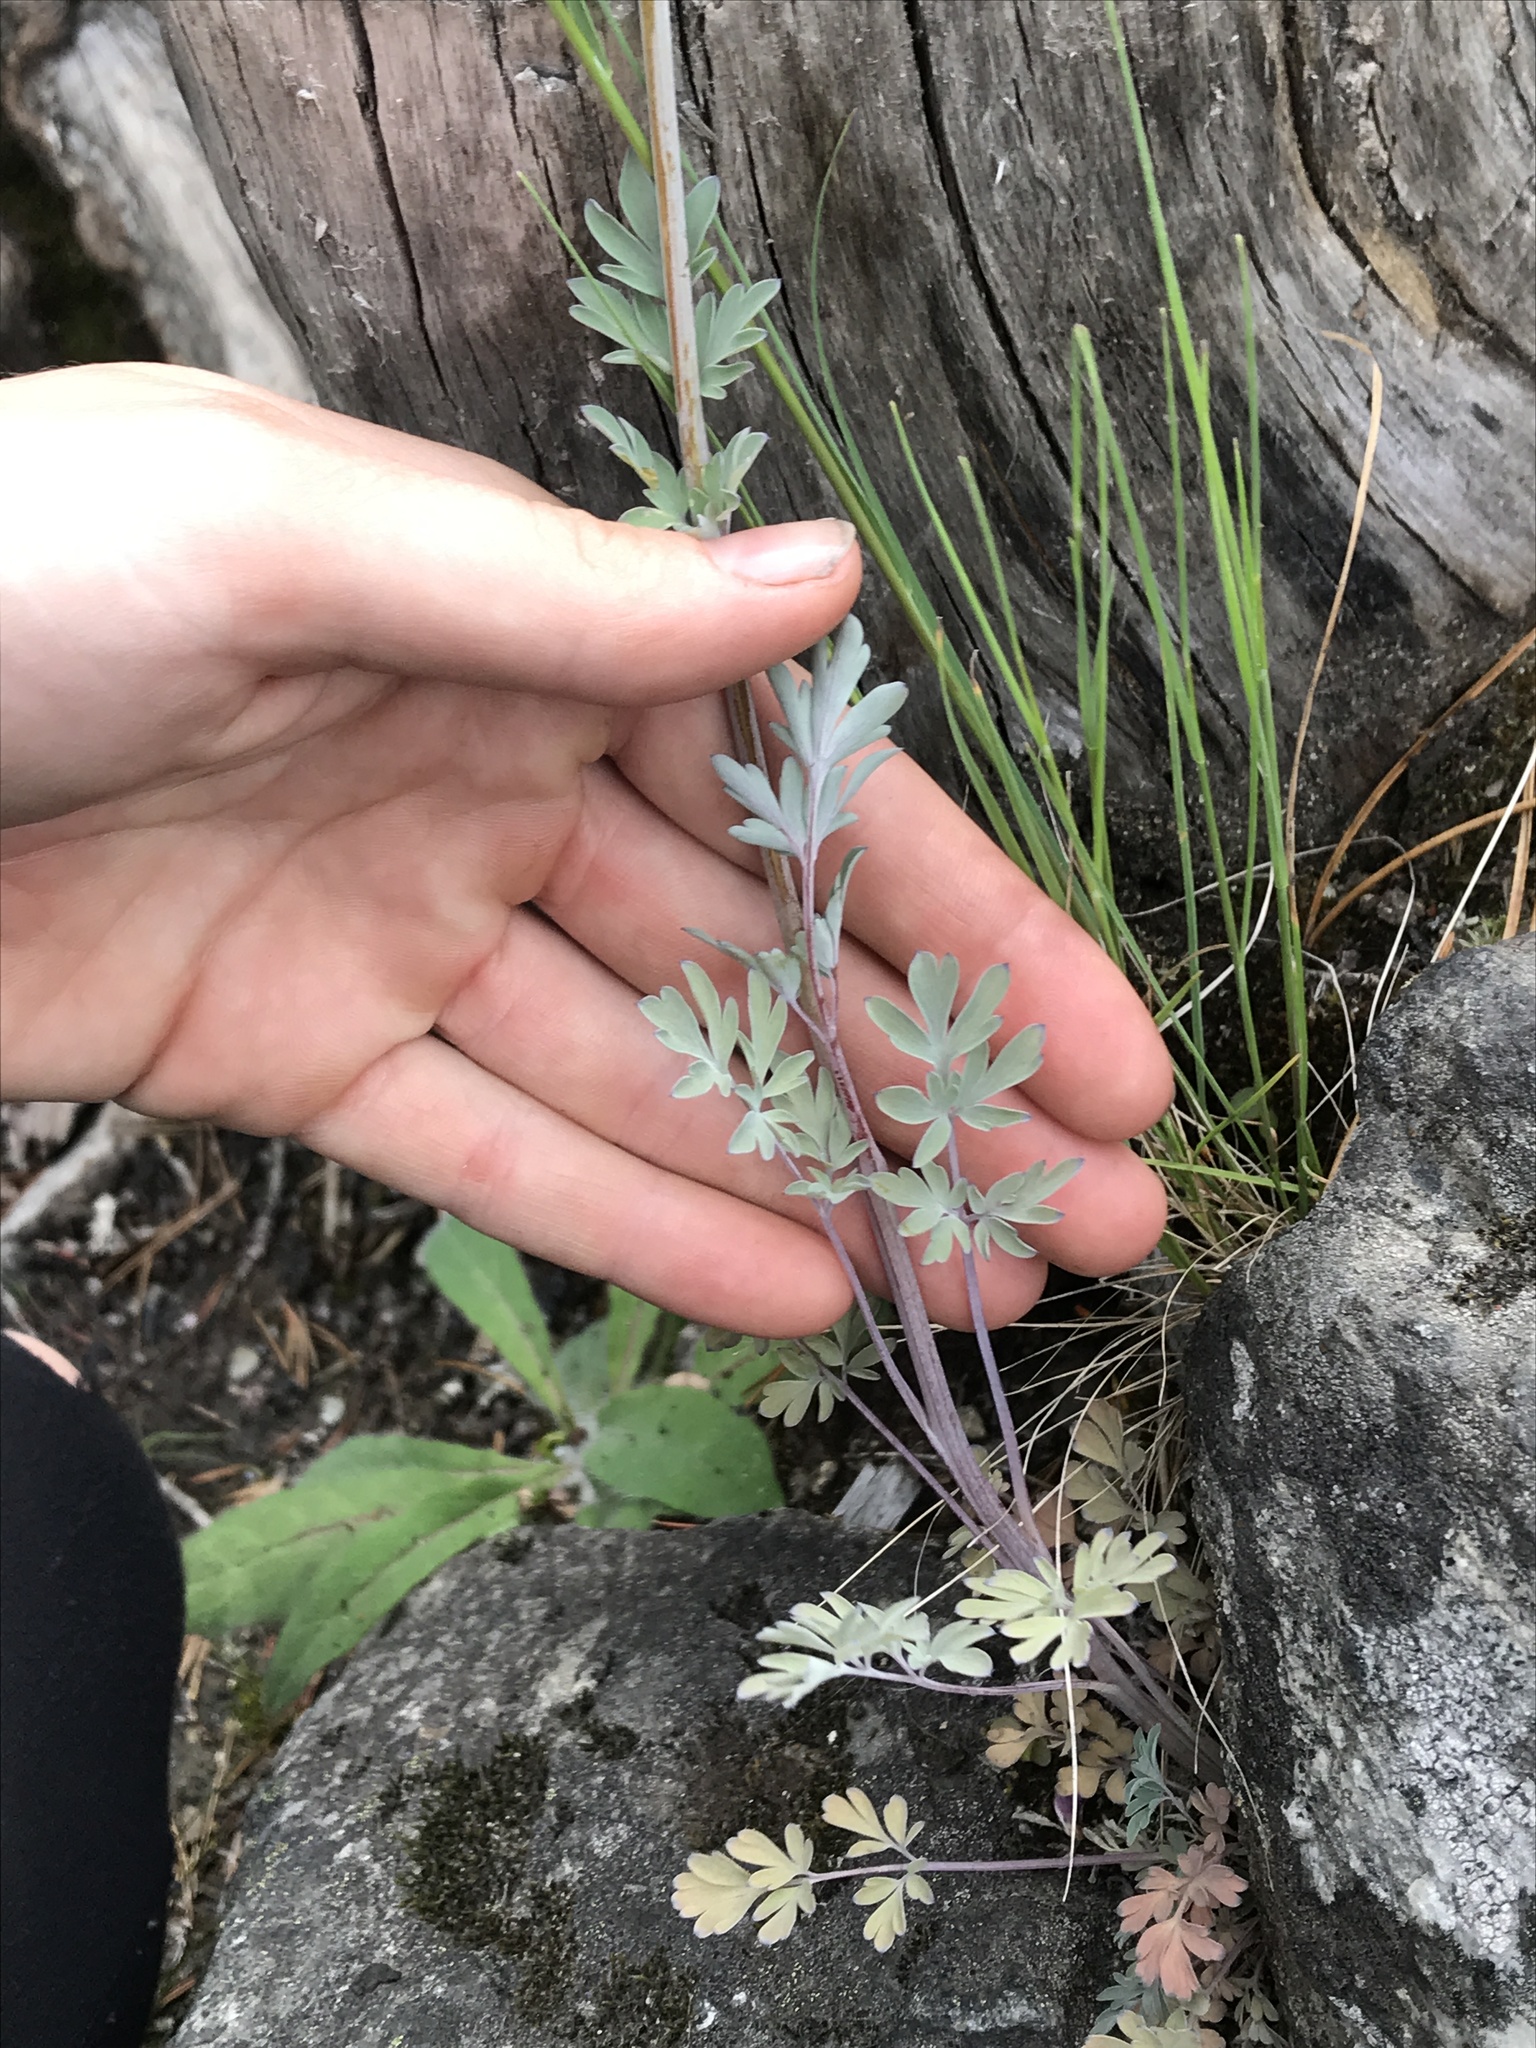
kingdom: Plantae
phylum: Tracheophyta
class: Magnoliopsida
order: Ranunculales
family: Papaveraceae
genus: Capnoides
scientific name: Capnoides sempervirens
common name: Rock harlequin
